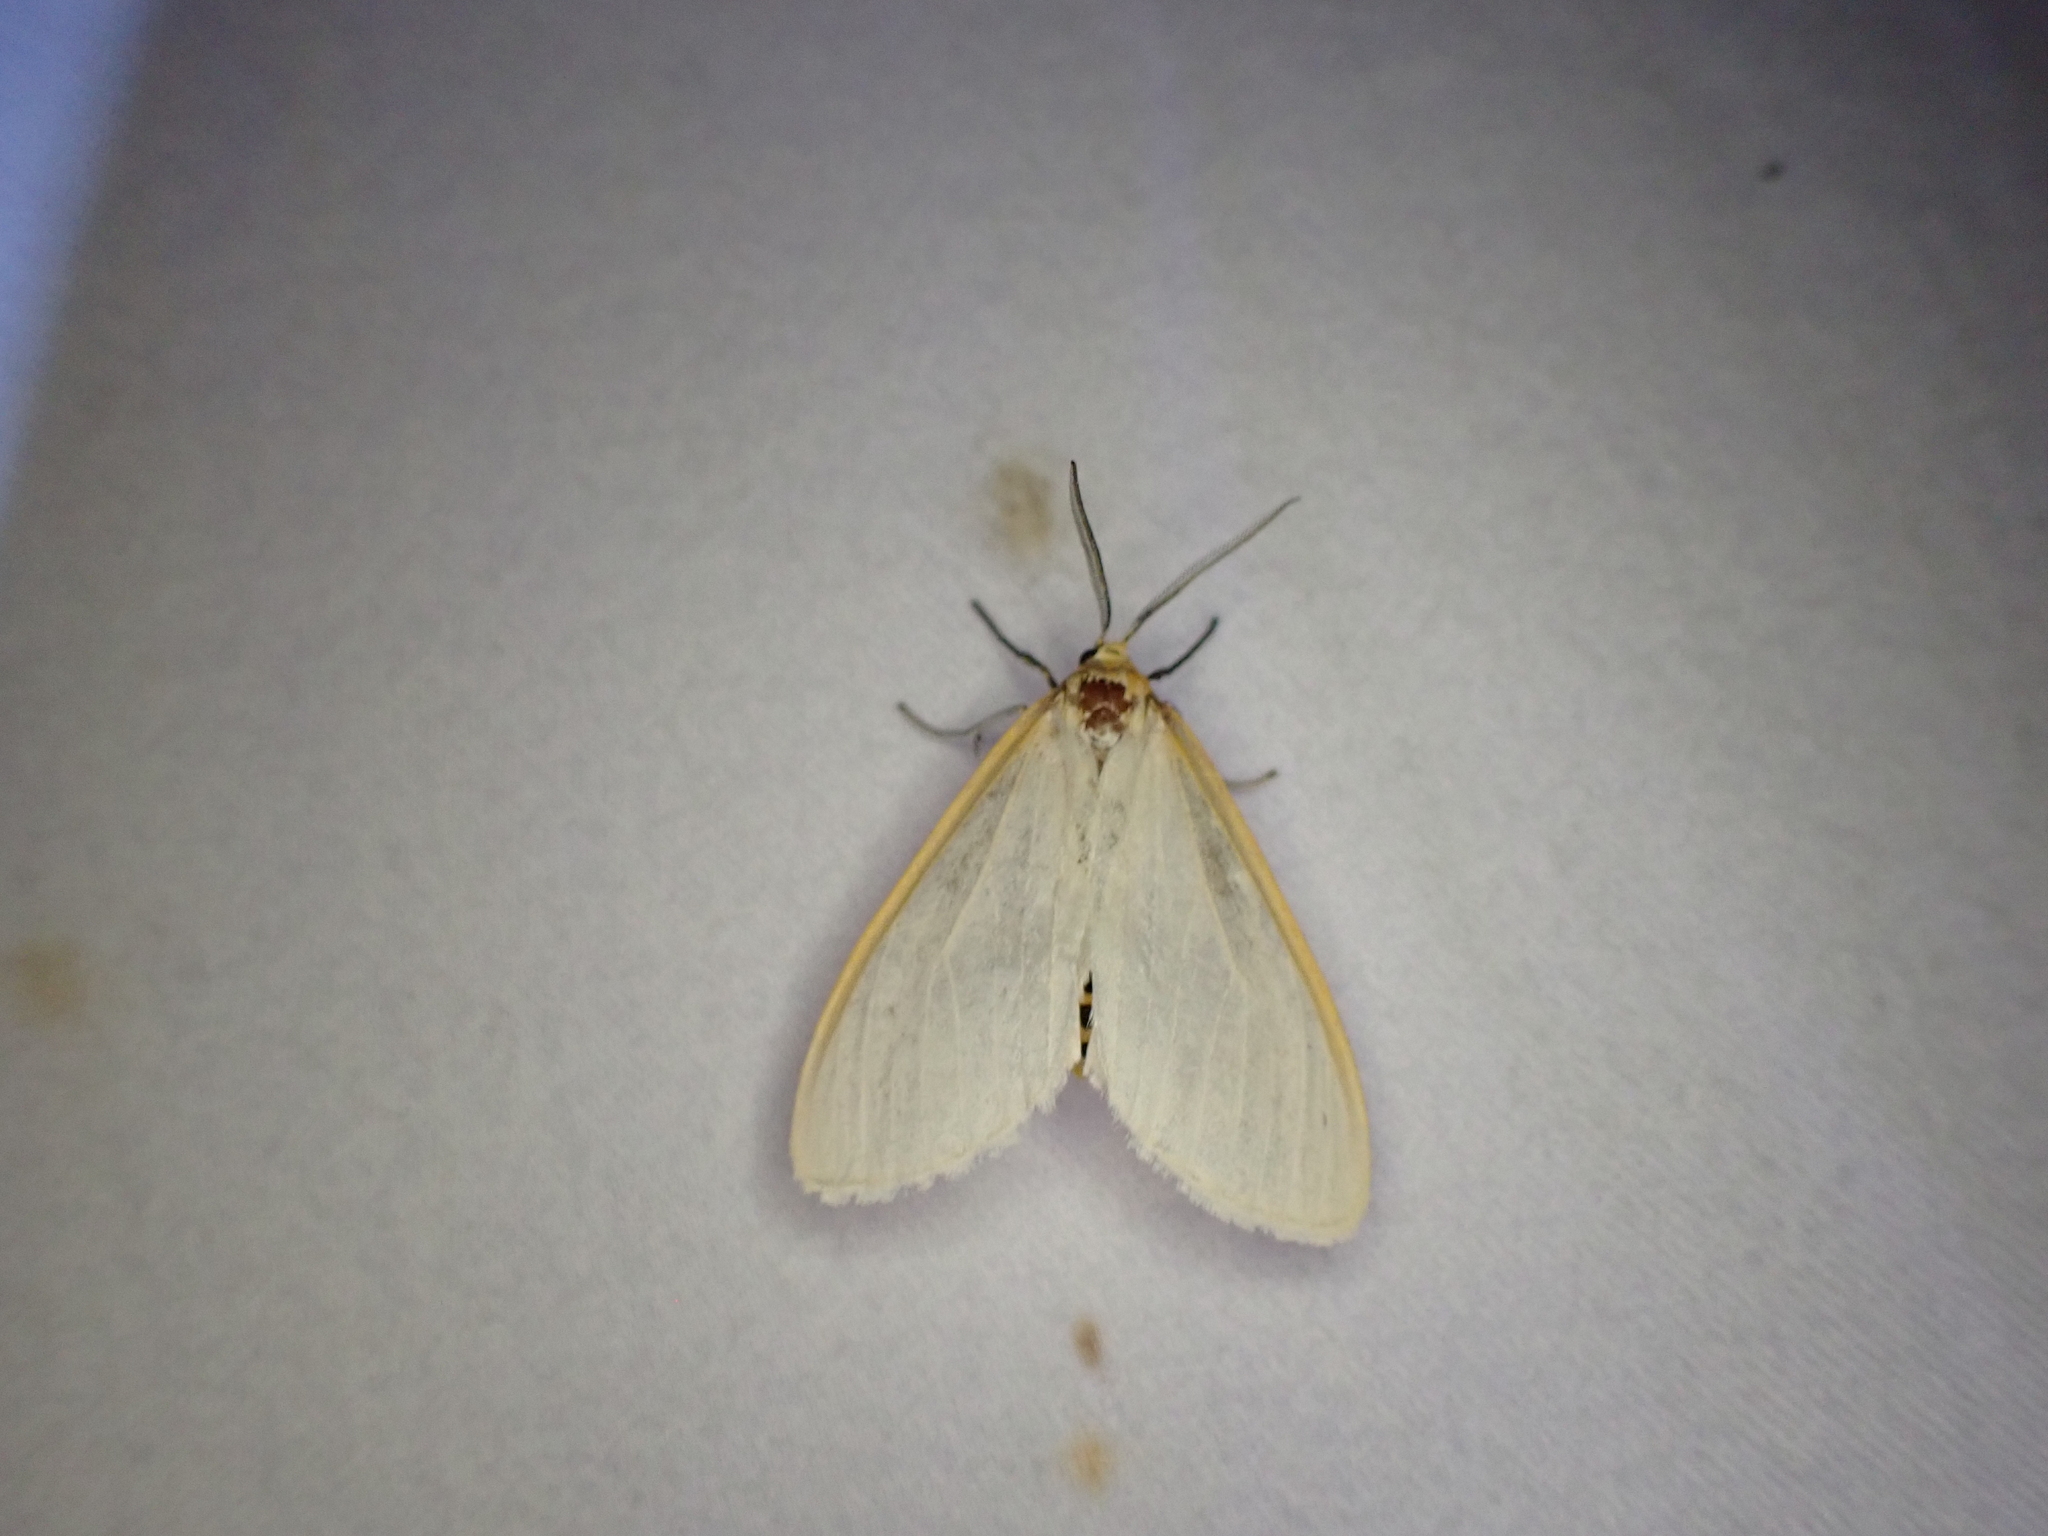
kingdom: Animalia
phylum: Arthropoda
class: Insecta
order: Lepidoptera
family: Erebidae
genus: Cycnia
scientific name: Cycnia tenera
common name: Delicate cycnia moth
